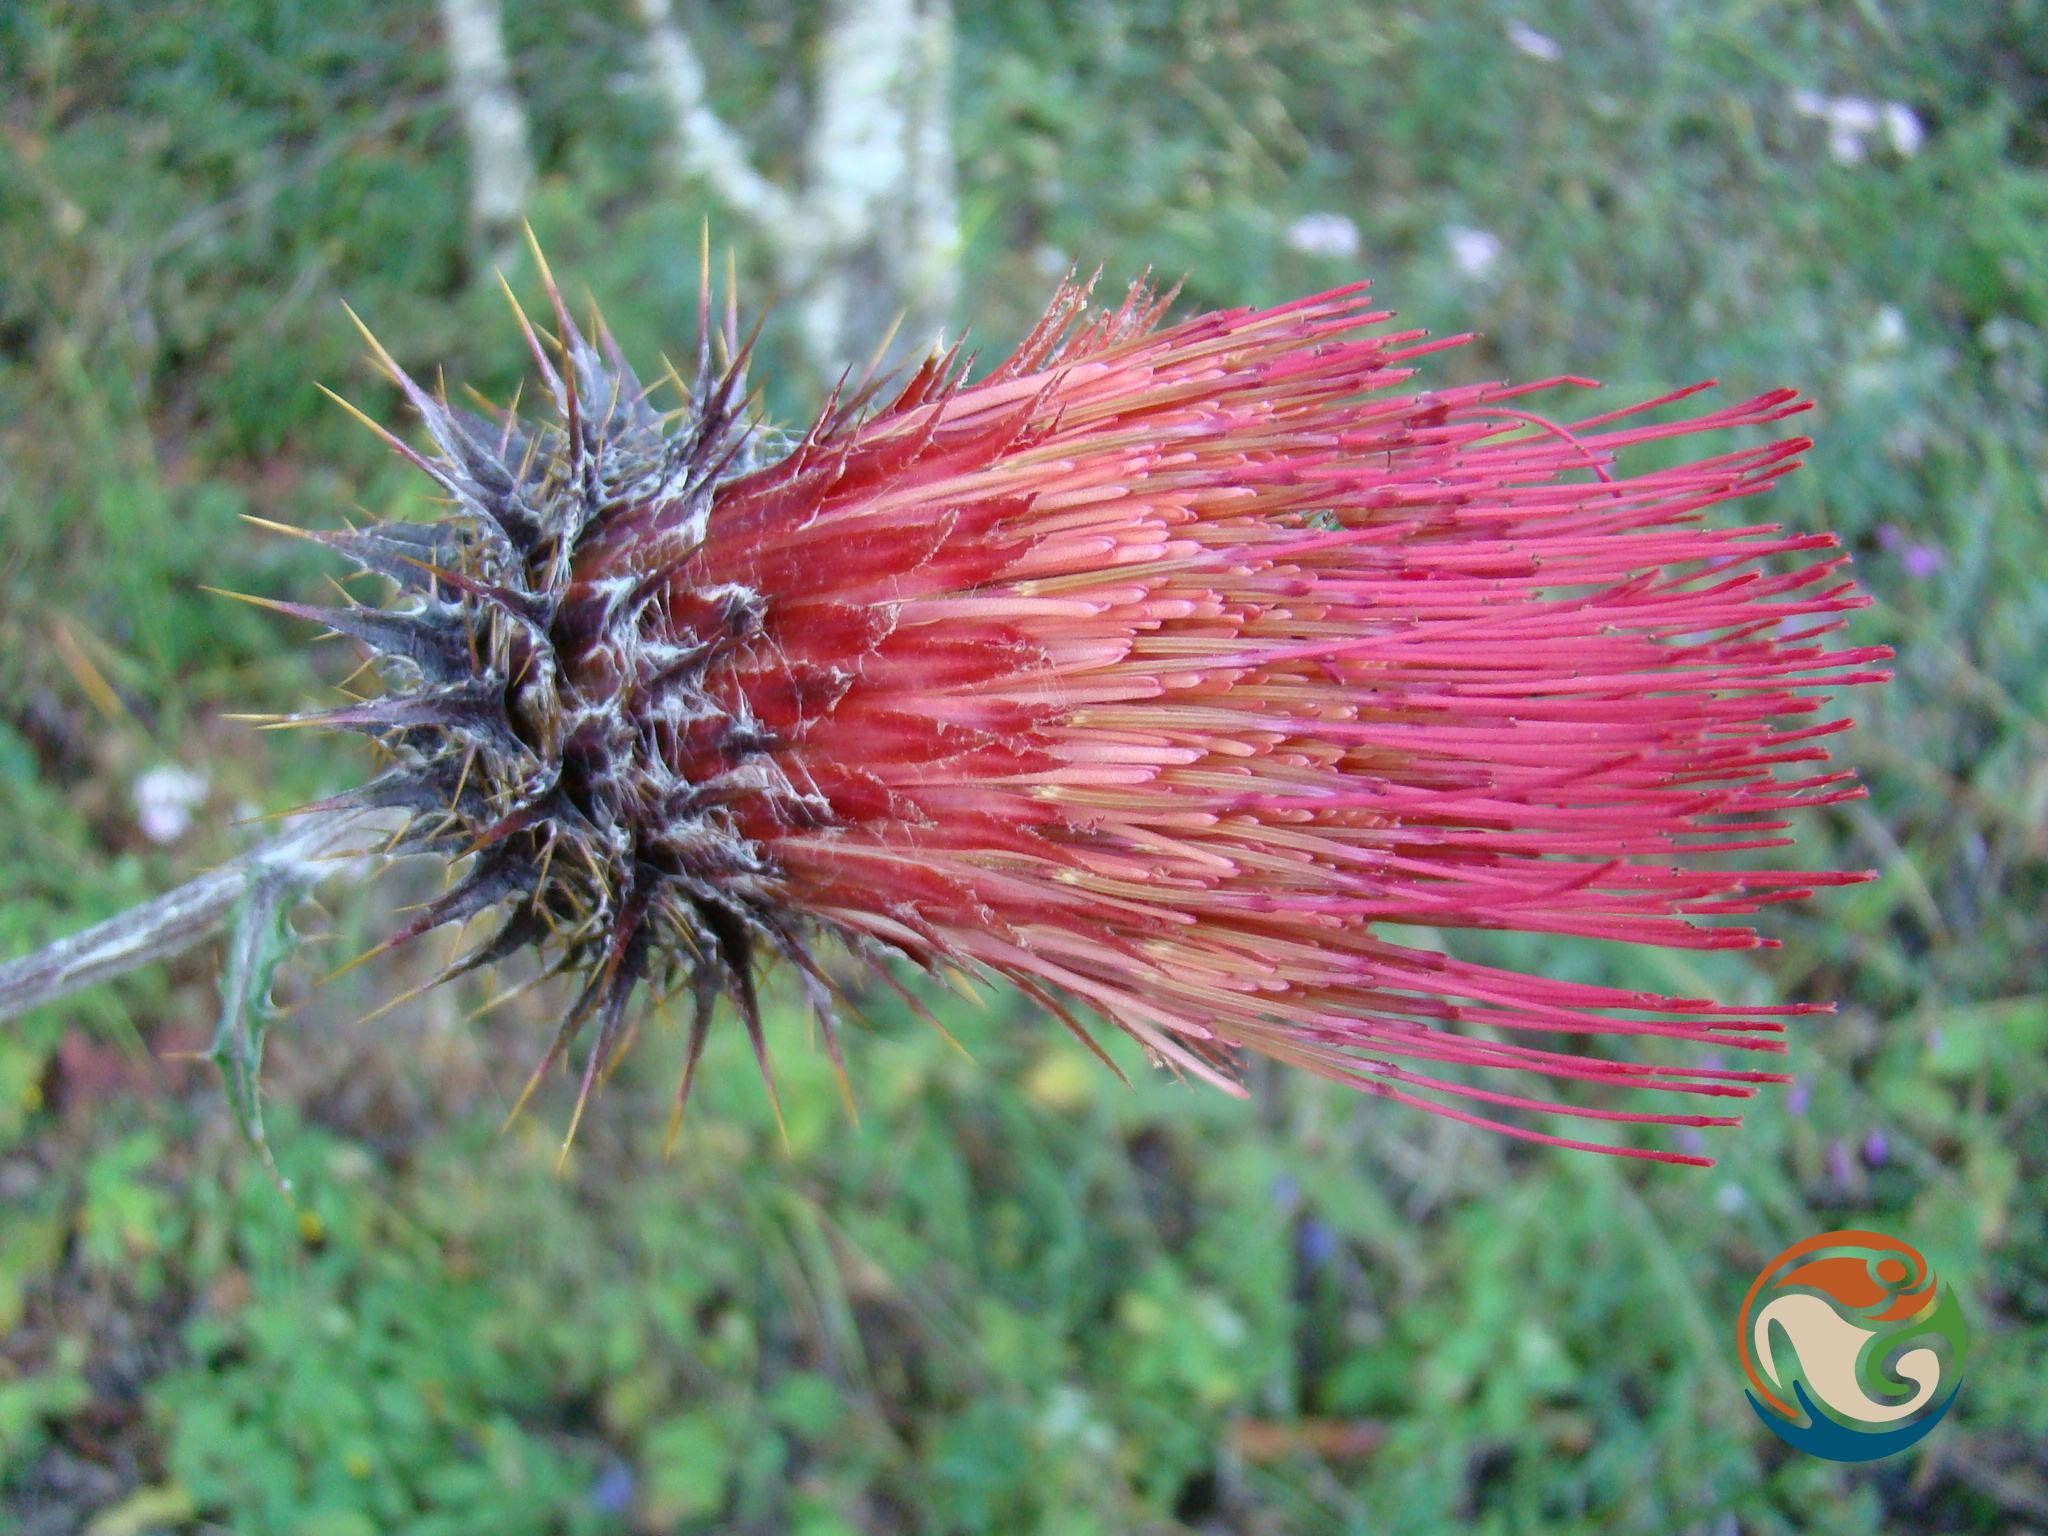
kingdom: Plantae
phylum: Tracheophyta
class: Magnoliopsida
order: Asterales
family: Asteraceae
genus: Cirsium
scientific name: Cirsium conspicuum
